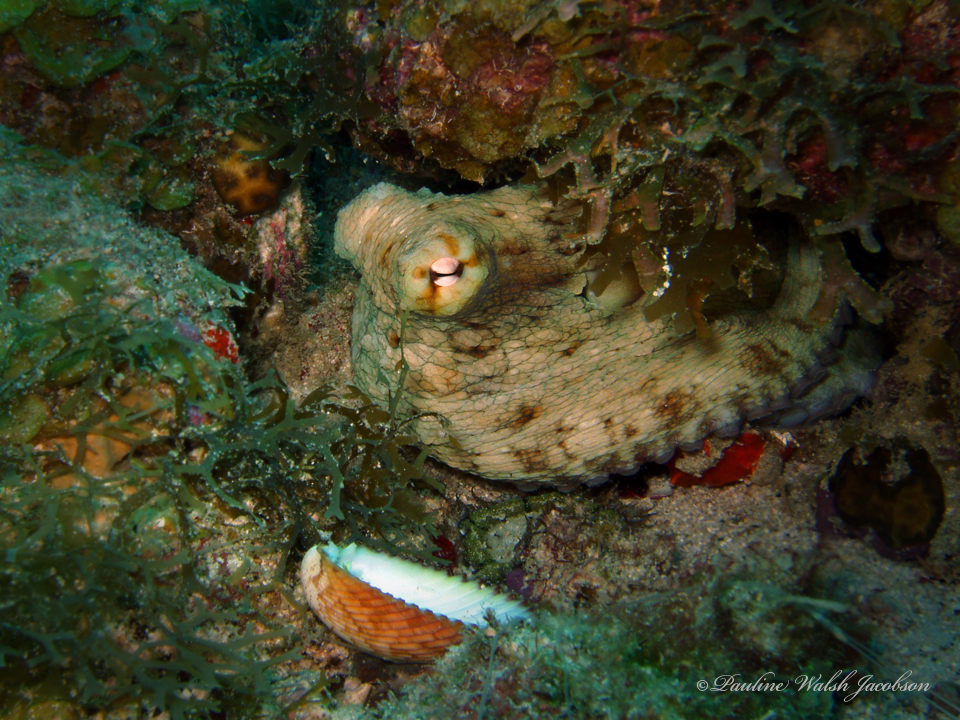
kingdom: Animalia
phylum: Mollusca
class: Cephalopoda
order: Octopoda
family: Octopodidae
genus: Octopus
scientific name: Octopus insularis
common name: Brazil reef octopus
